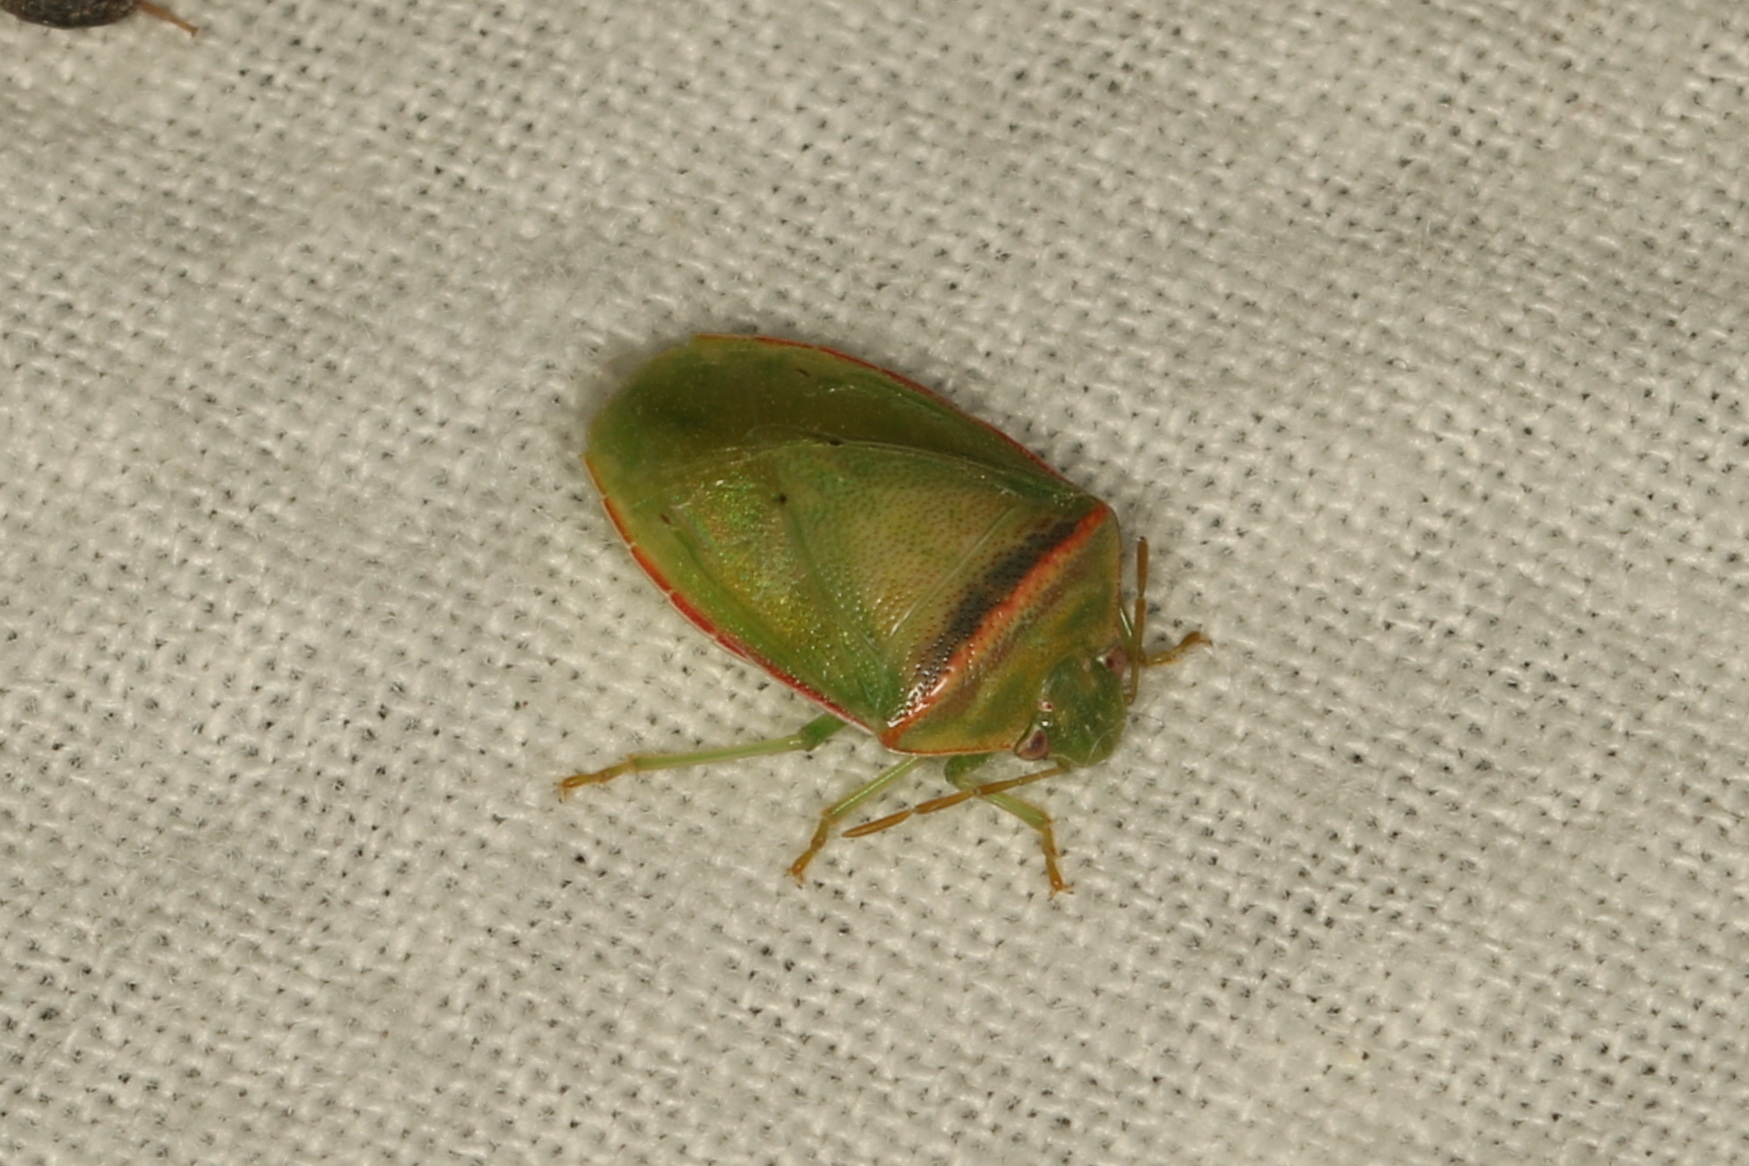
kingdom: Animalia
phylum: Arthropoda
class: Insecta
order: Hemiptera
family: Pentatomidae
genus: Piezodorus
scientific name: Piezodorus oceanicus
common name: Stink bug
